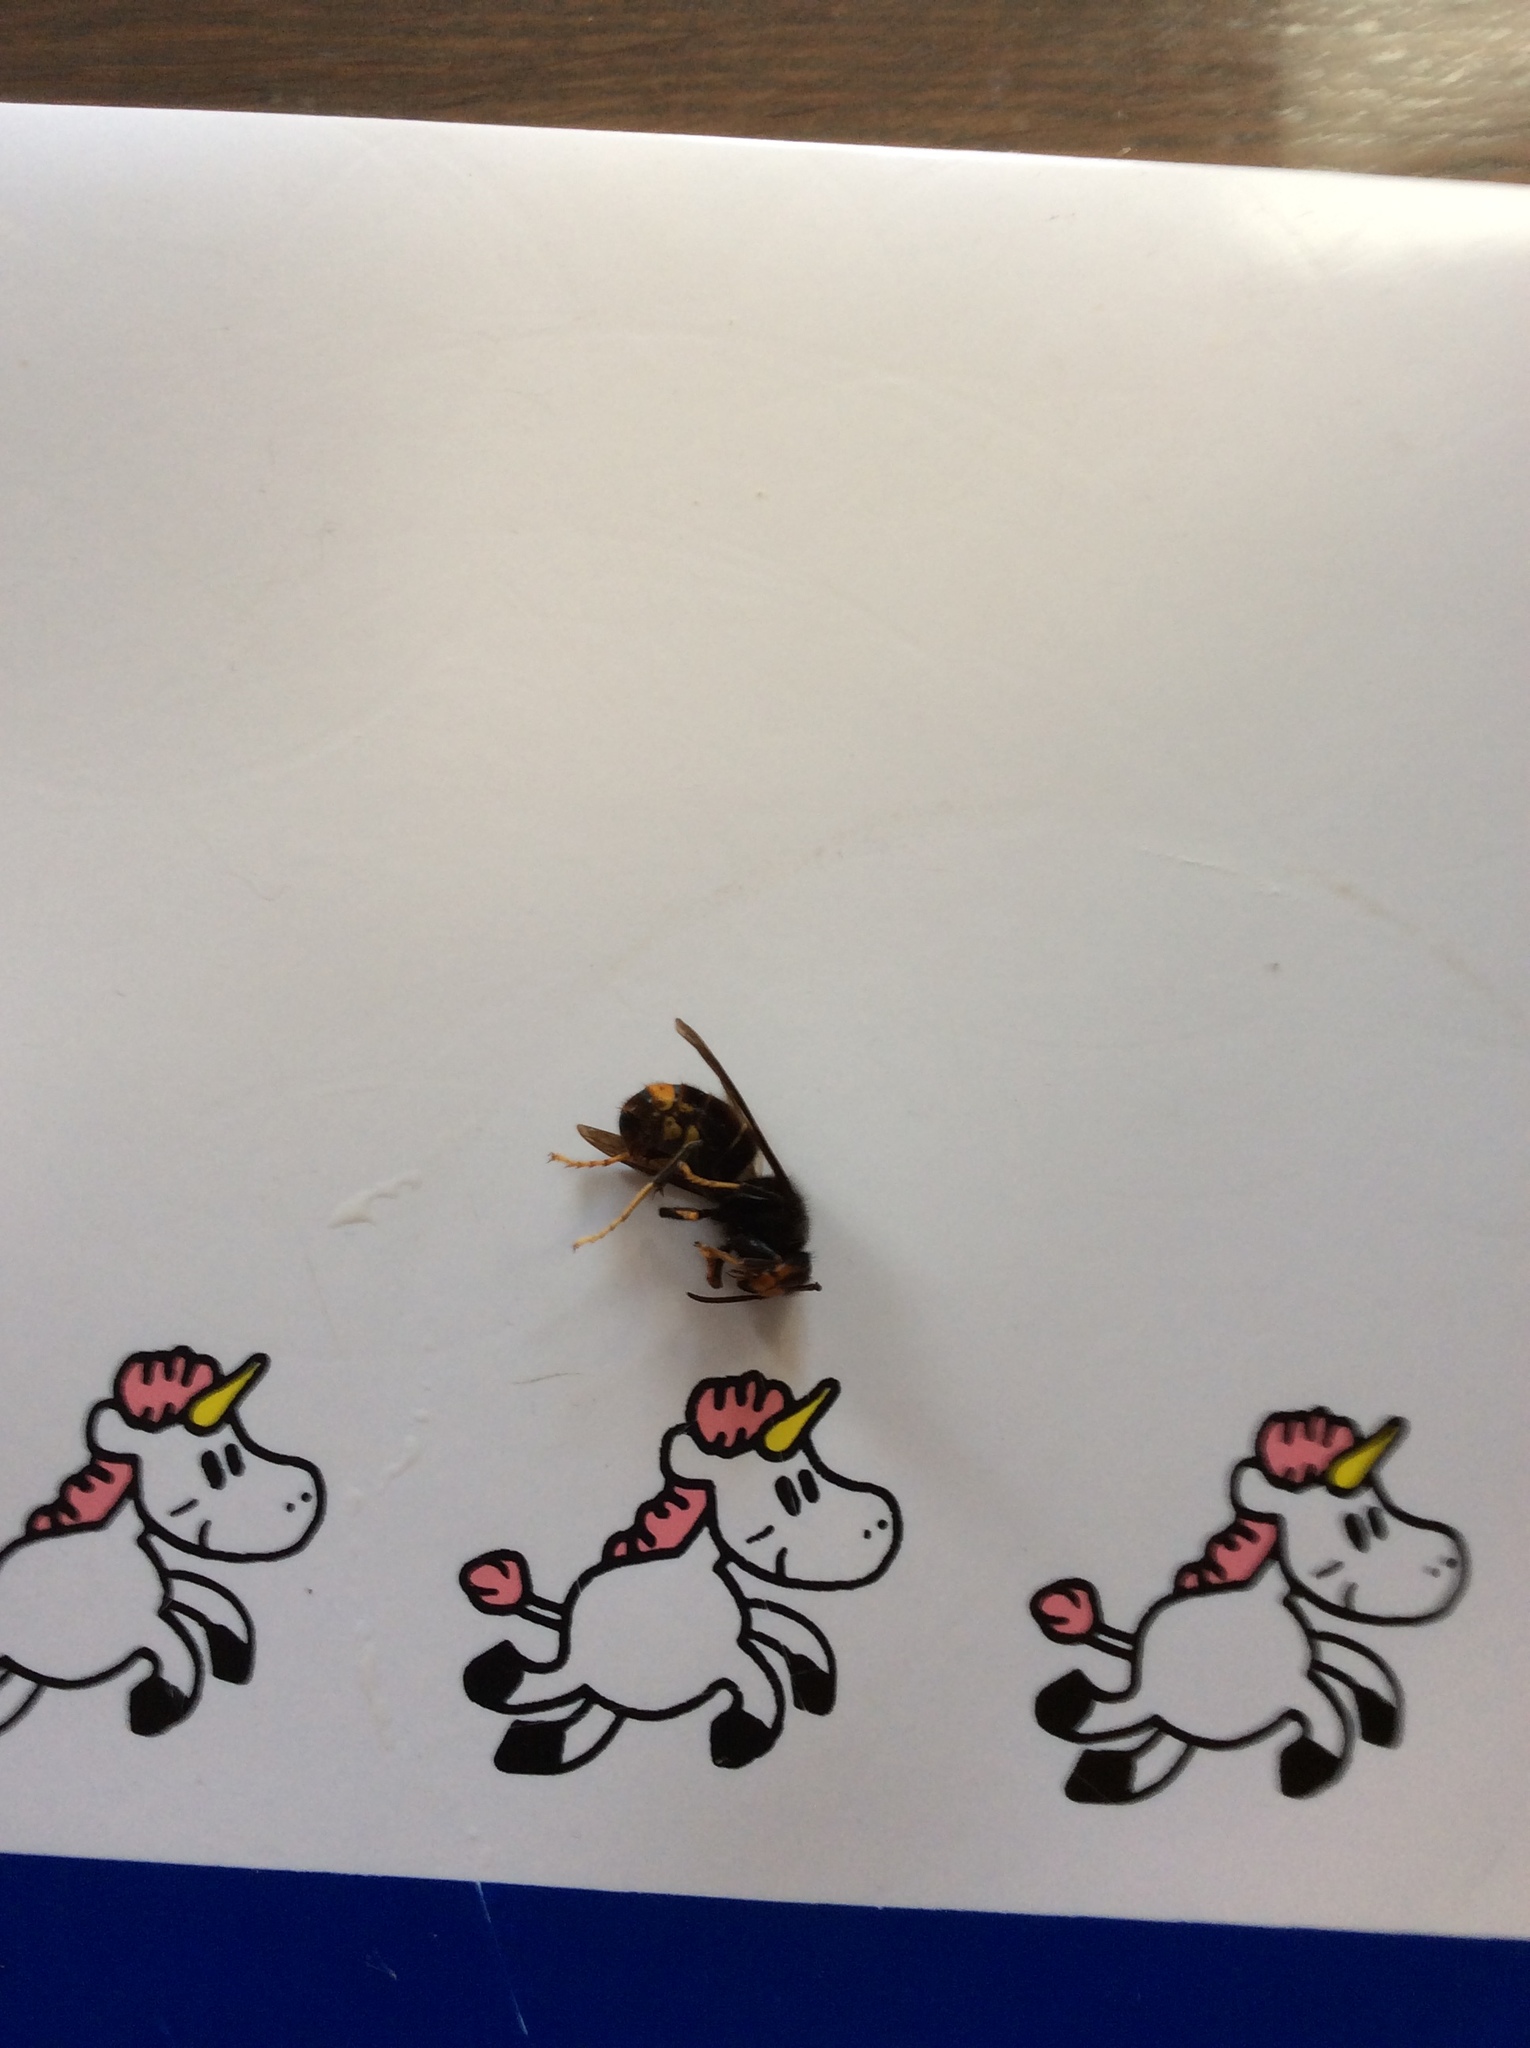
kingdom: Animalia
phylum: Arthropoda
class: Insecta
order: Hymenoptera
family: Vespidae
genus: Vespa
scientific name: Vespa velutina
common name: Asian hornet
